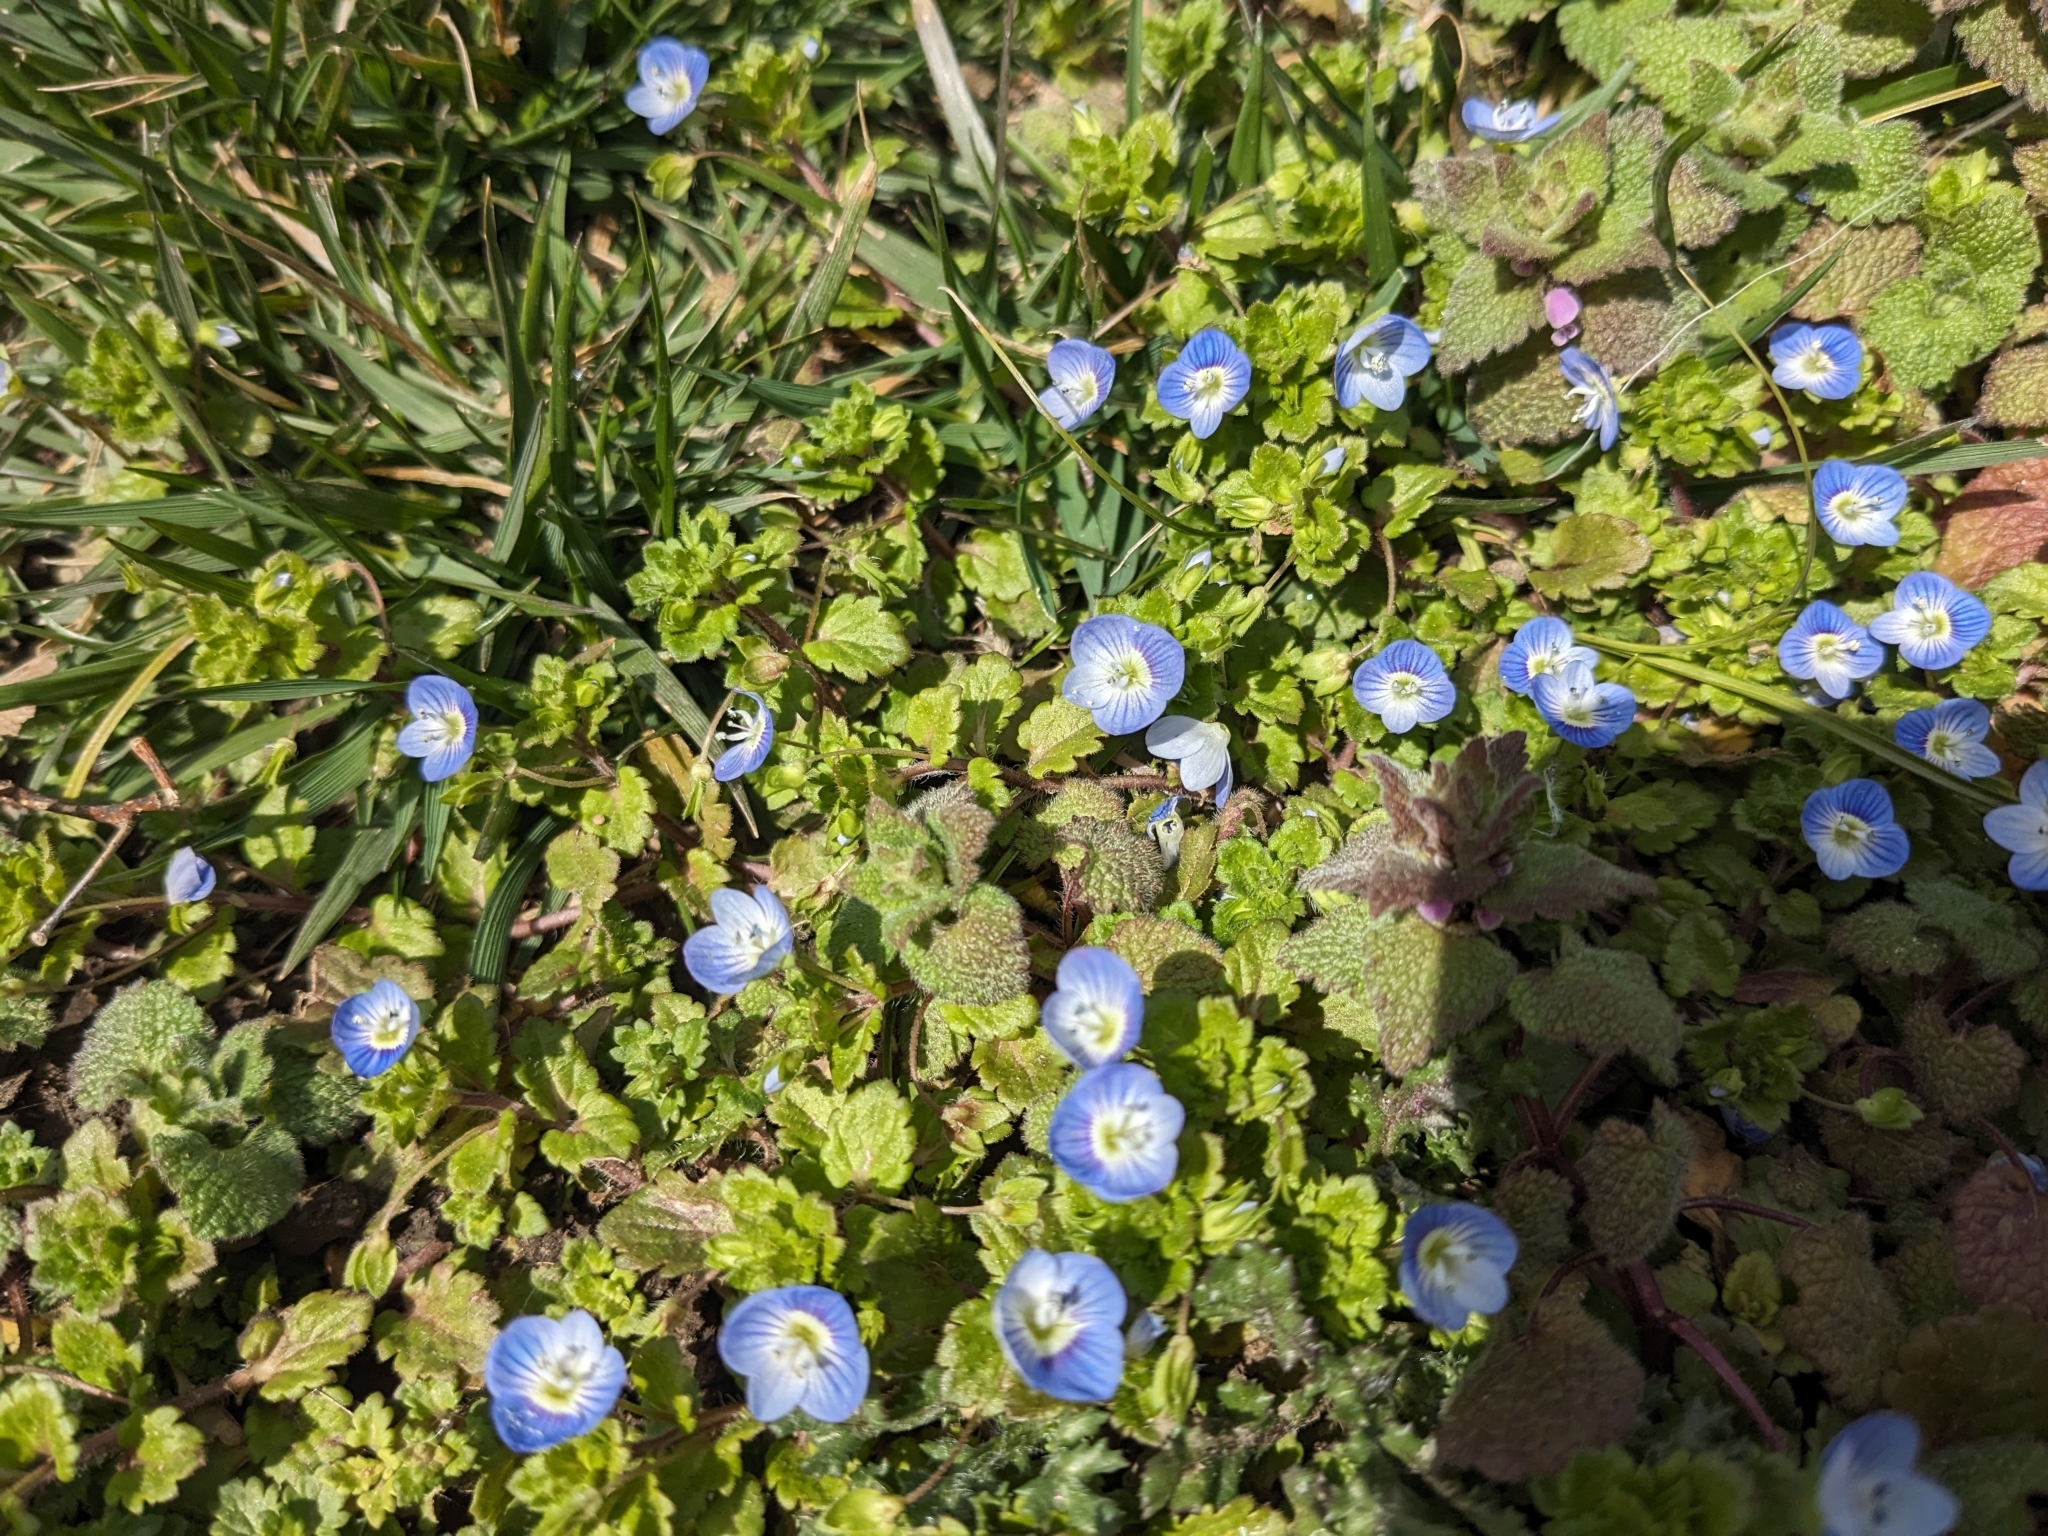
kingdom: Plantae
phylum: Tracheophyta
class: Magnoliopsida
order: Lamiales
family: Plantaginaceae
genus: Veronica
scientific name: Veronica persica
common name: Common field-speedwell
